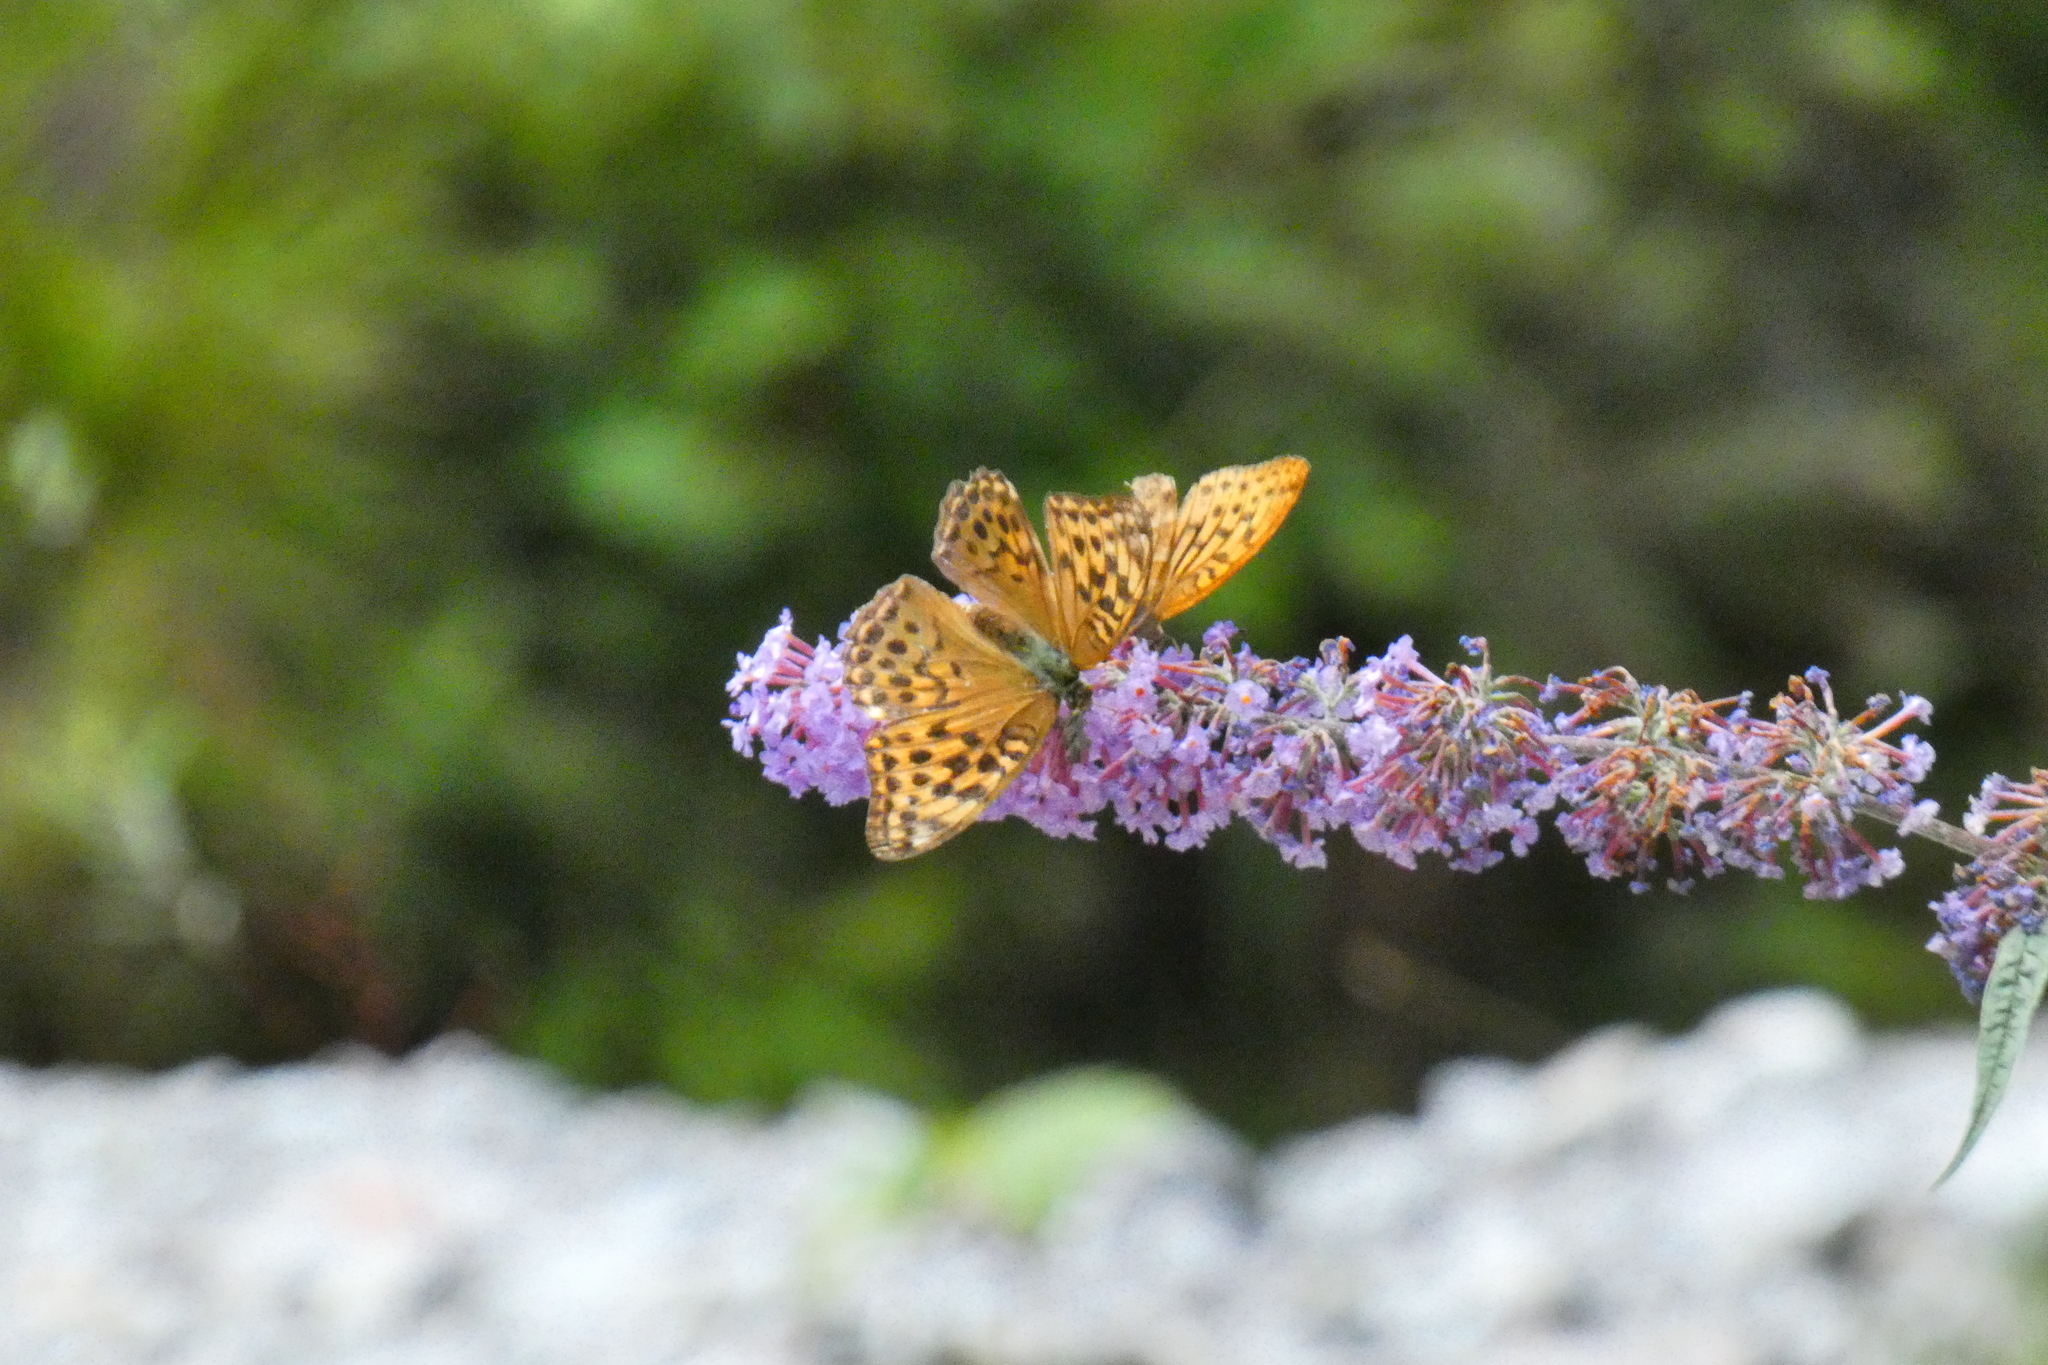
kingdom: Animalia
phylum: Arthropoda
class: Insecta
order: Lepidoptera
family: Nymphalidae
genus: Argynnis
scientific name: Argynnis paphia
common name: Silver-washed fritillary
